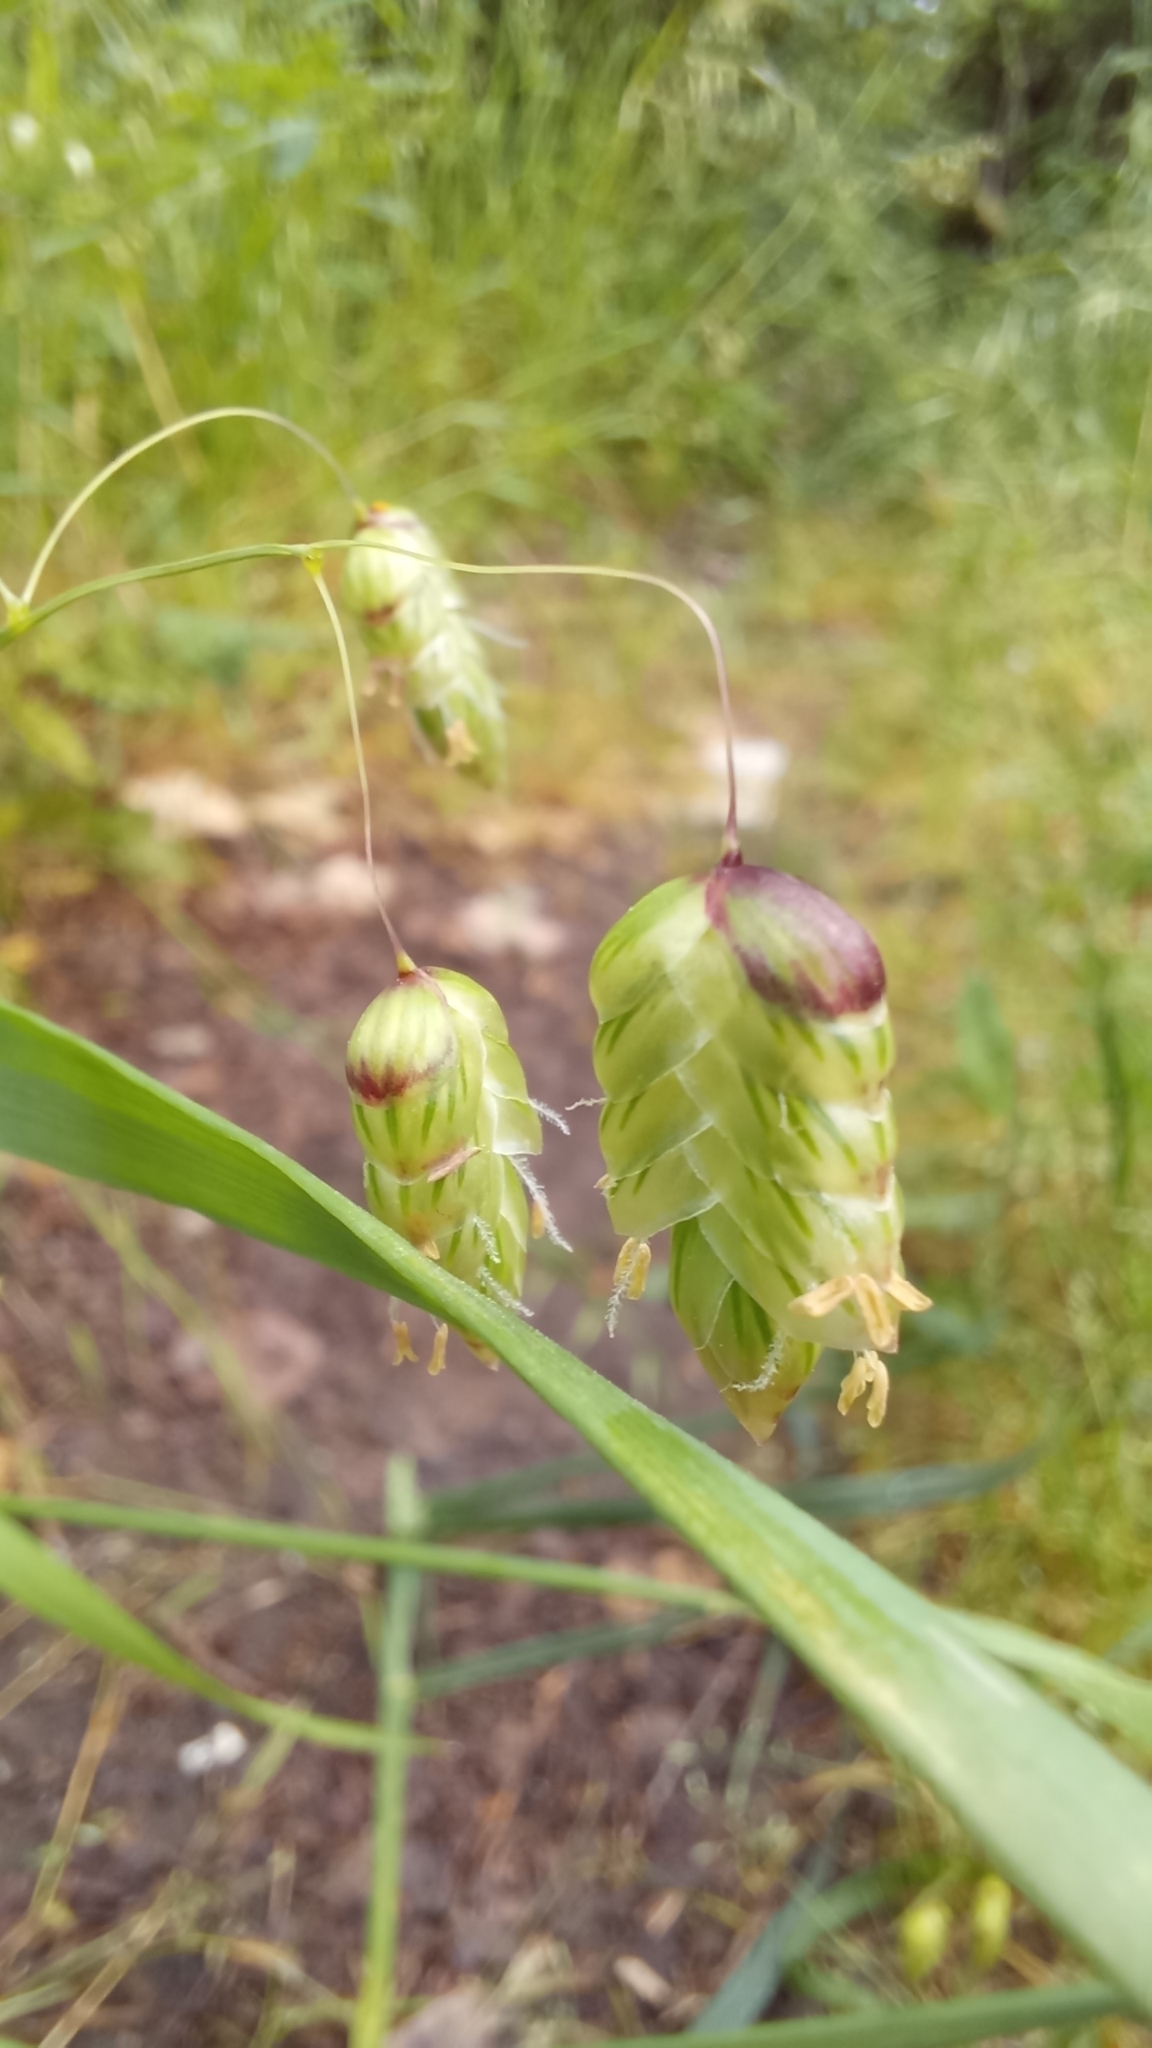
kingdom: Plantae
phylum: Tracheophyta
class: Liliopsida
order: Poales
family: Poaceae
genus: Briza
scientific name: Briza maxima
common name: Big quakinggrass
